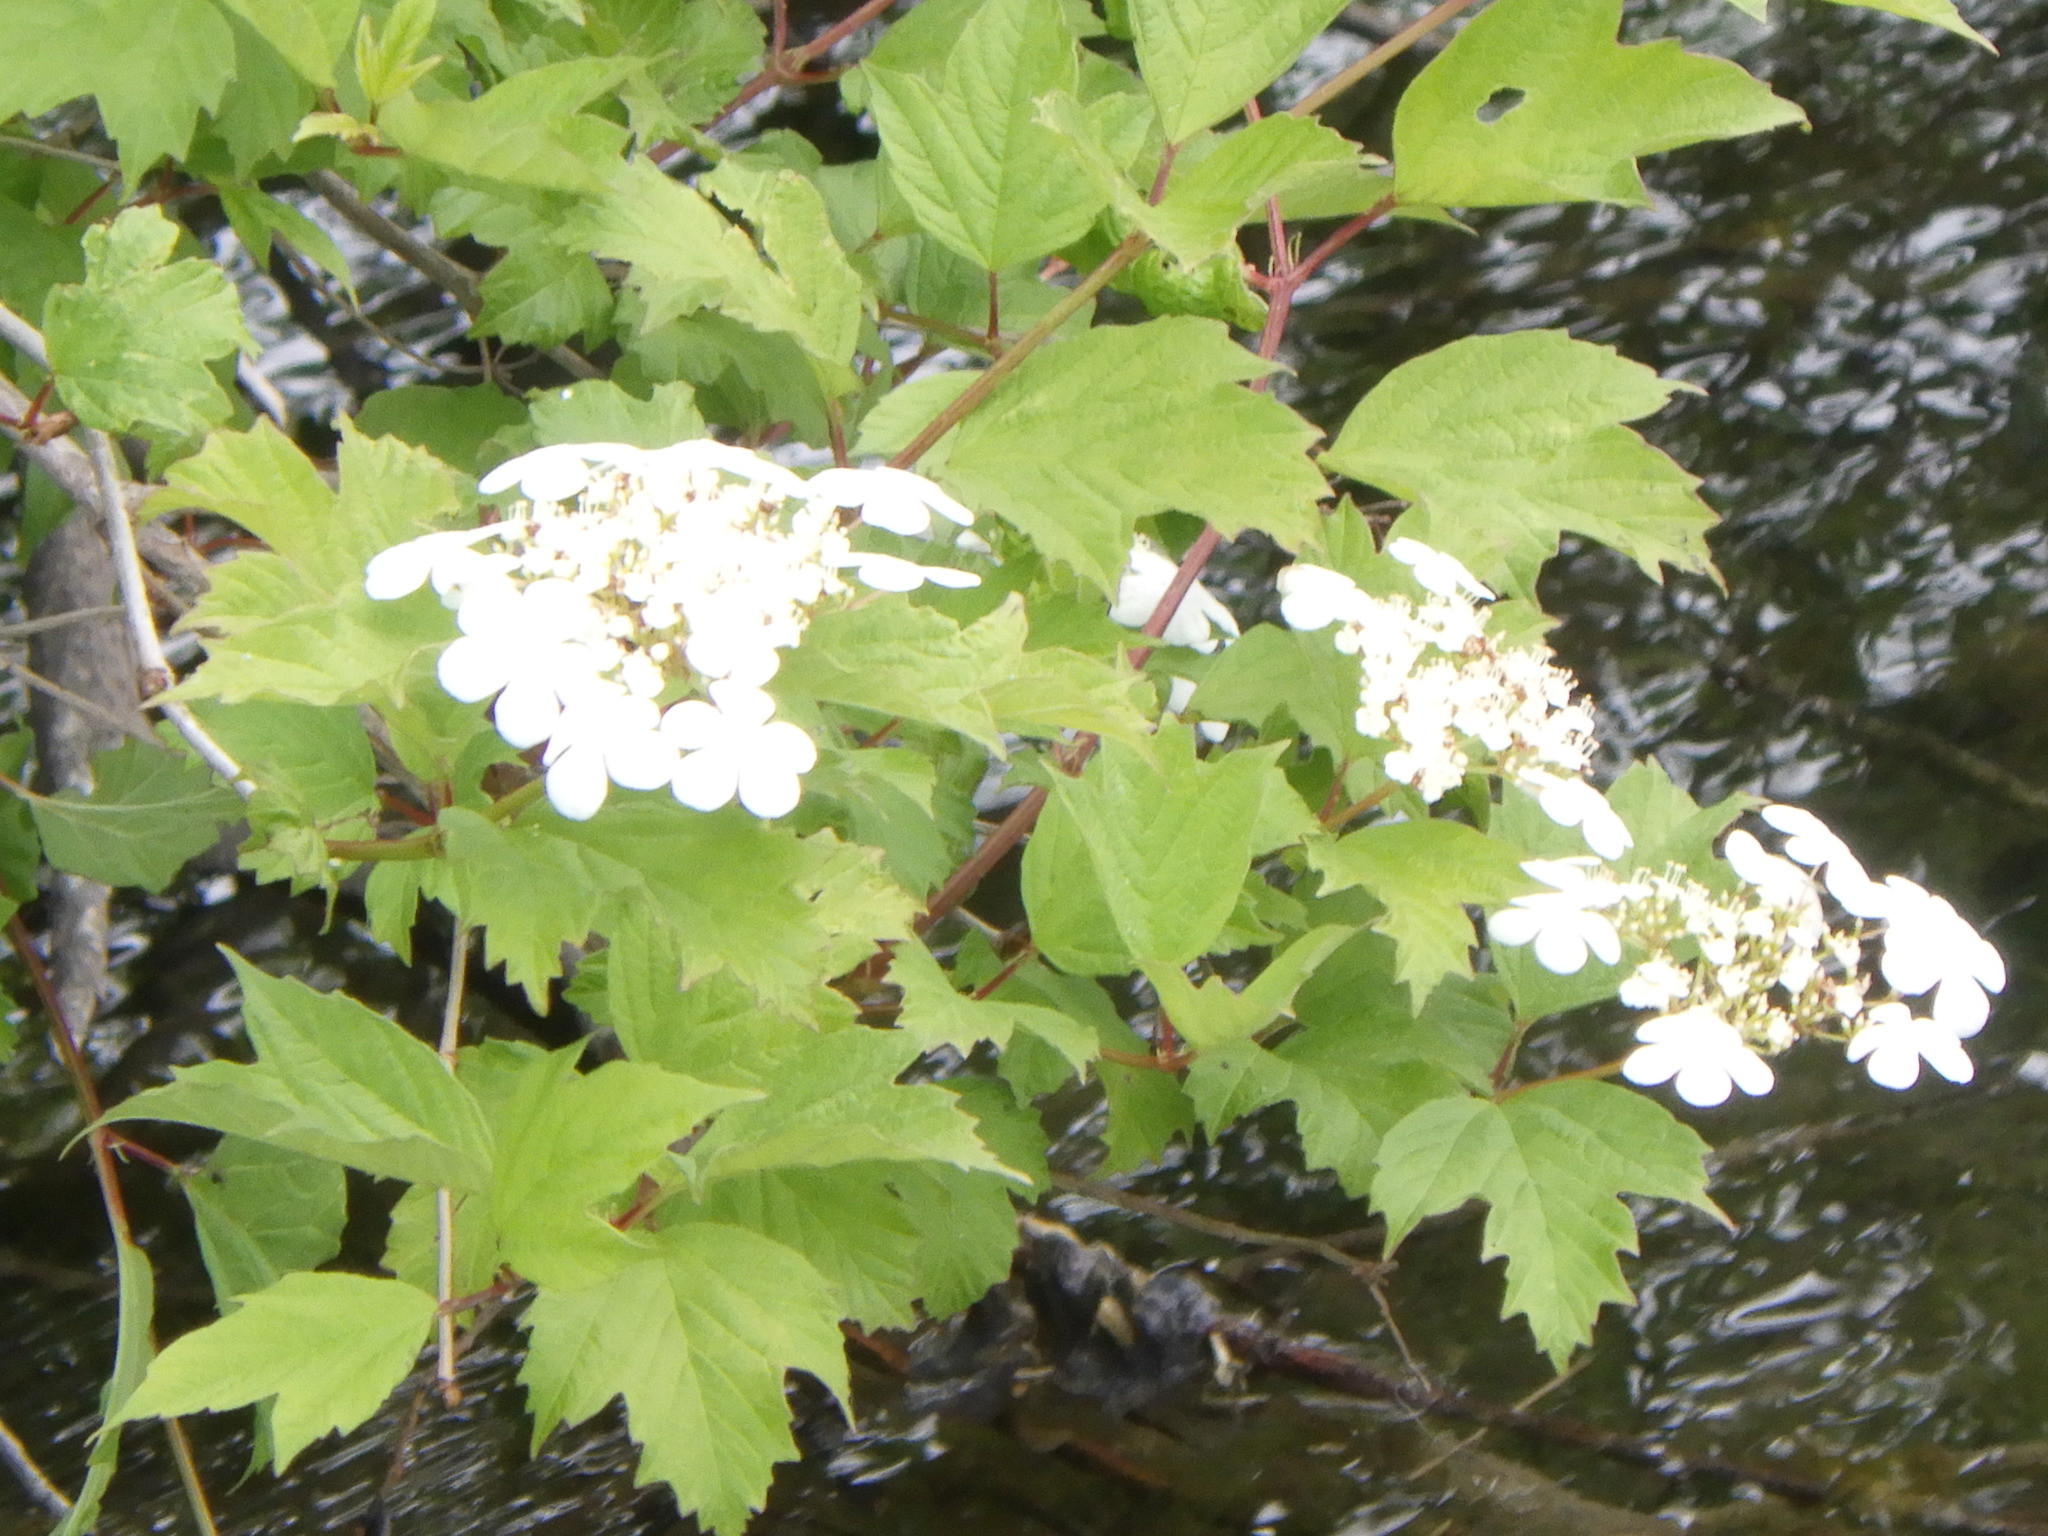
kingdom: Plantae
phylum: Tracheophyta
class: Magnoliopsida
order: Dipsacales
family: Viburnaceae
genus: Viburnum
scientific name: Viburnum opulus
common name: Guelder-rose
